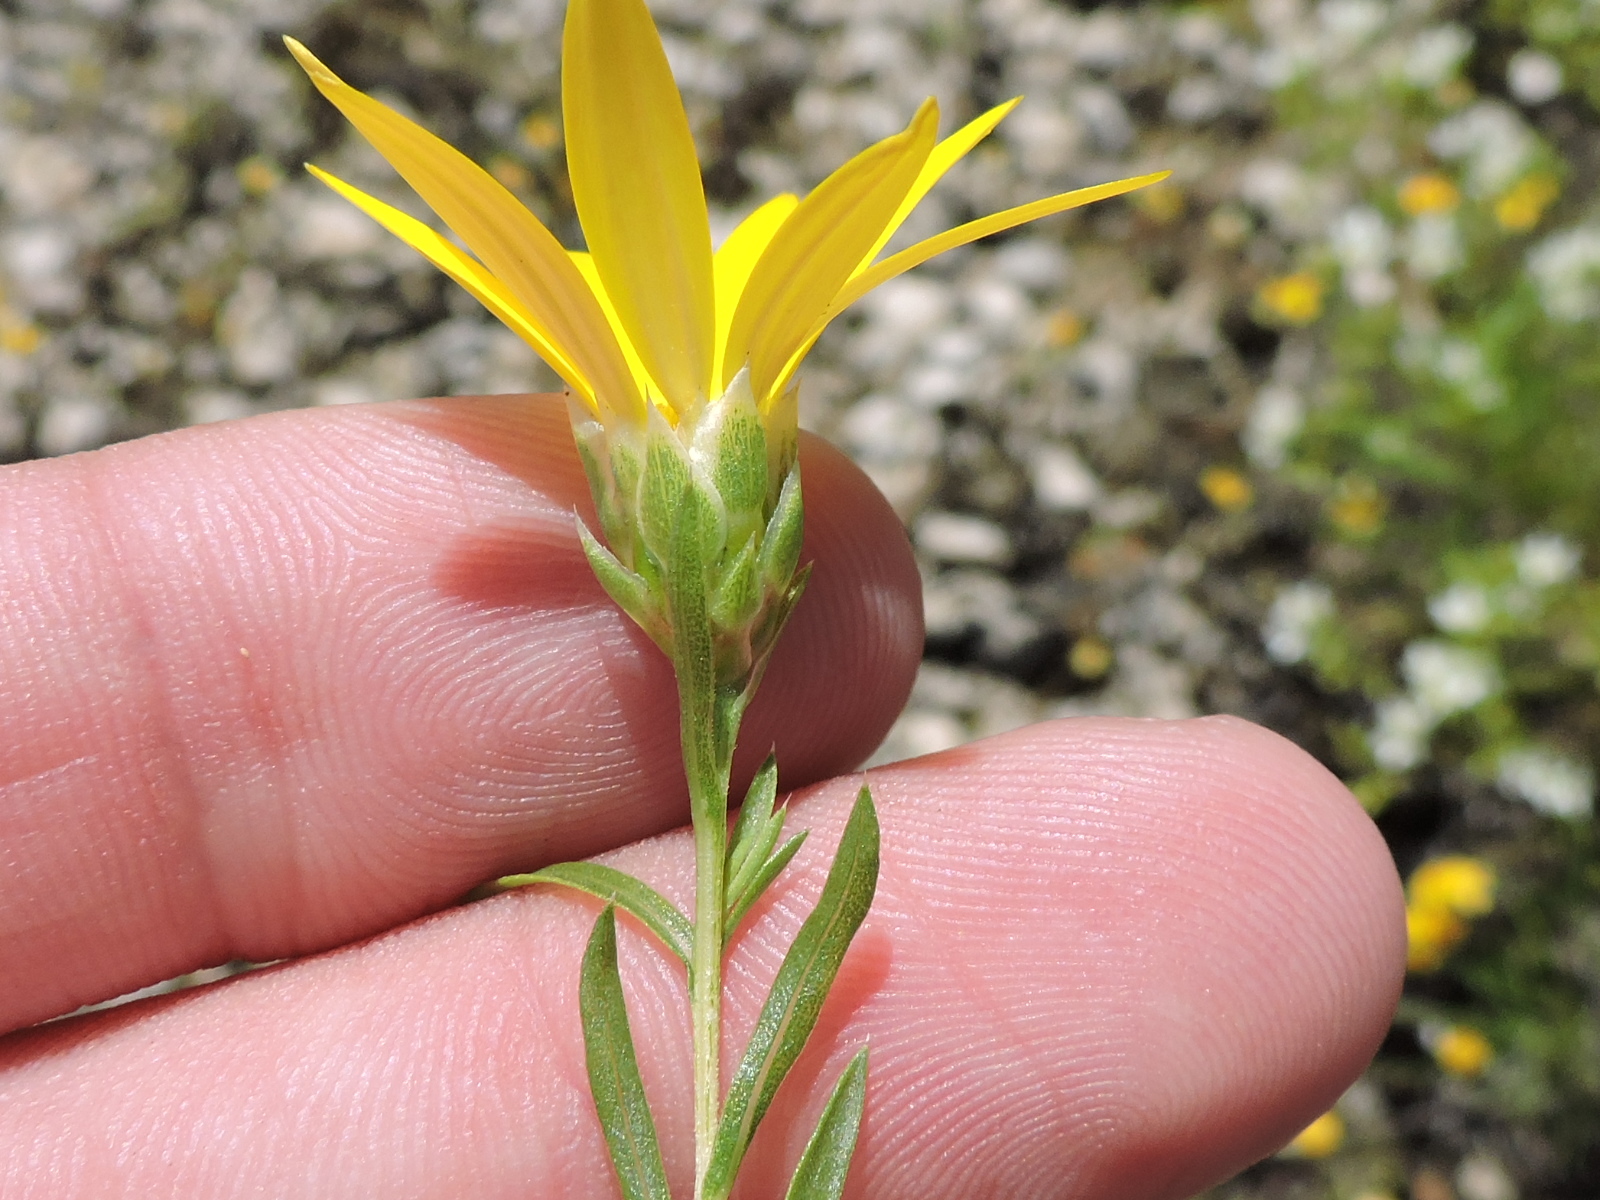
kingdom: Plantae
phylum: Tracheophyta
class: Magnoliopsida
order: Asterales
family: Asteraceae
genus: Xanthisma
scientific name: Xanthisma texanum
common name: Texas sleepy daisy
